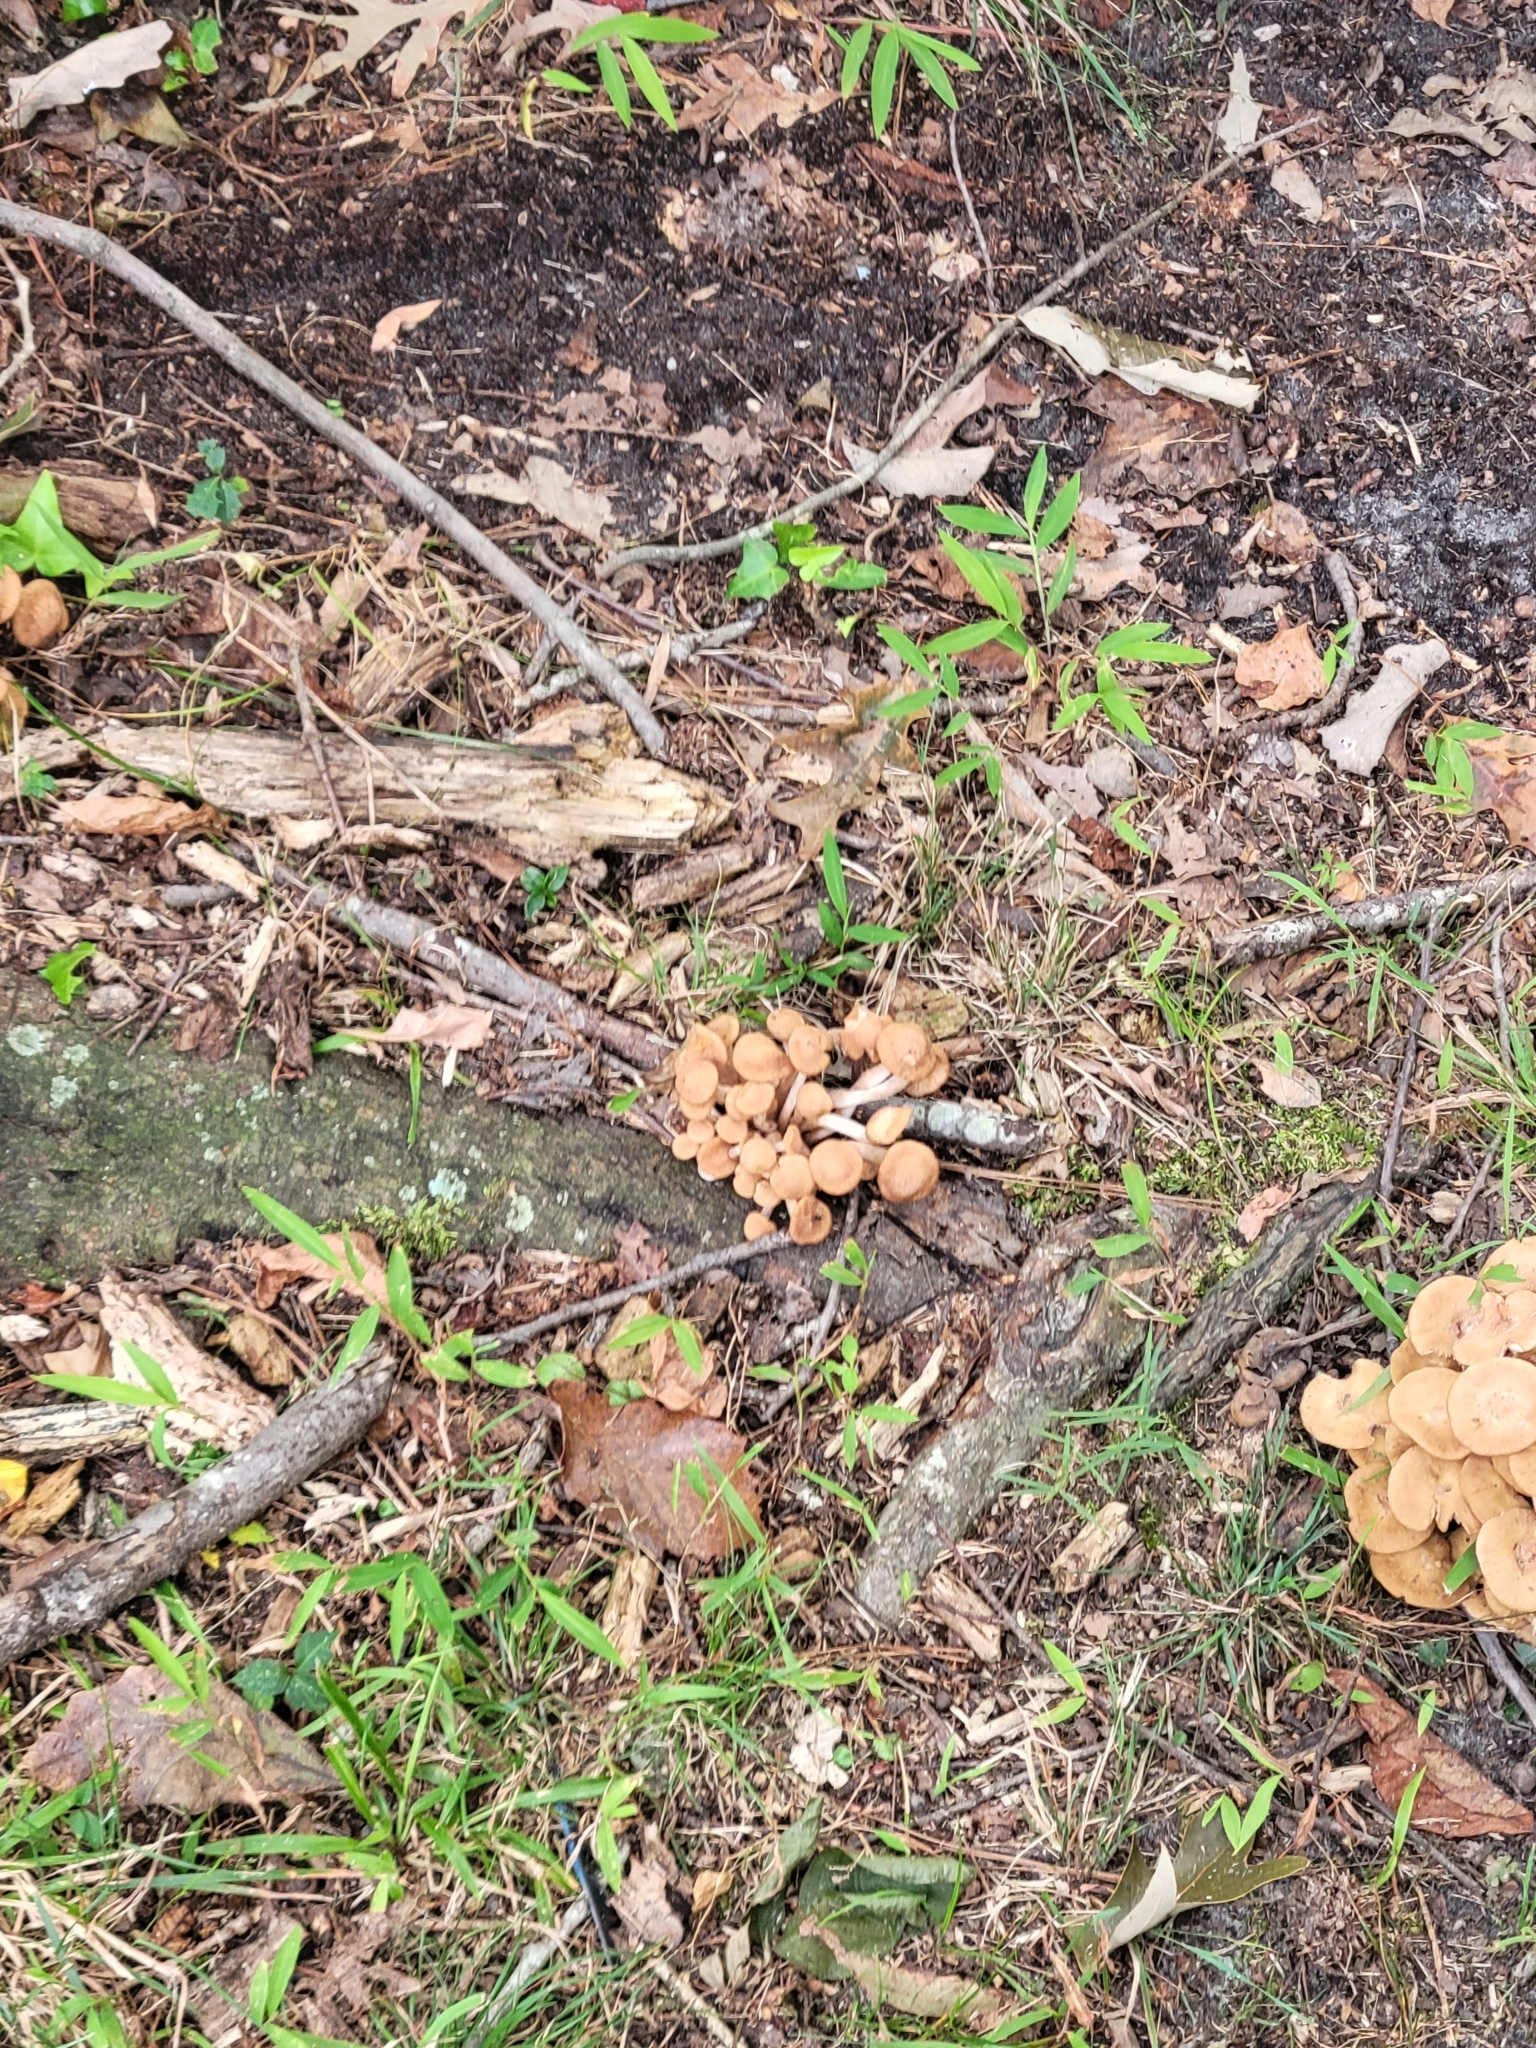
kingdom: Fungi
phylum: Basidiomycota
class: Agaricomycetes
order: Agaricales
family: Physalacriaceae
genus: Desarmillaria
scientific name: Desarmillaria caespitosa
